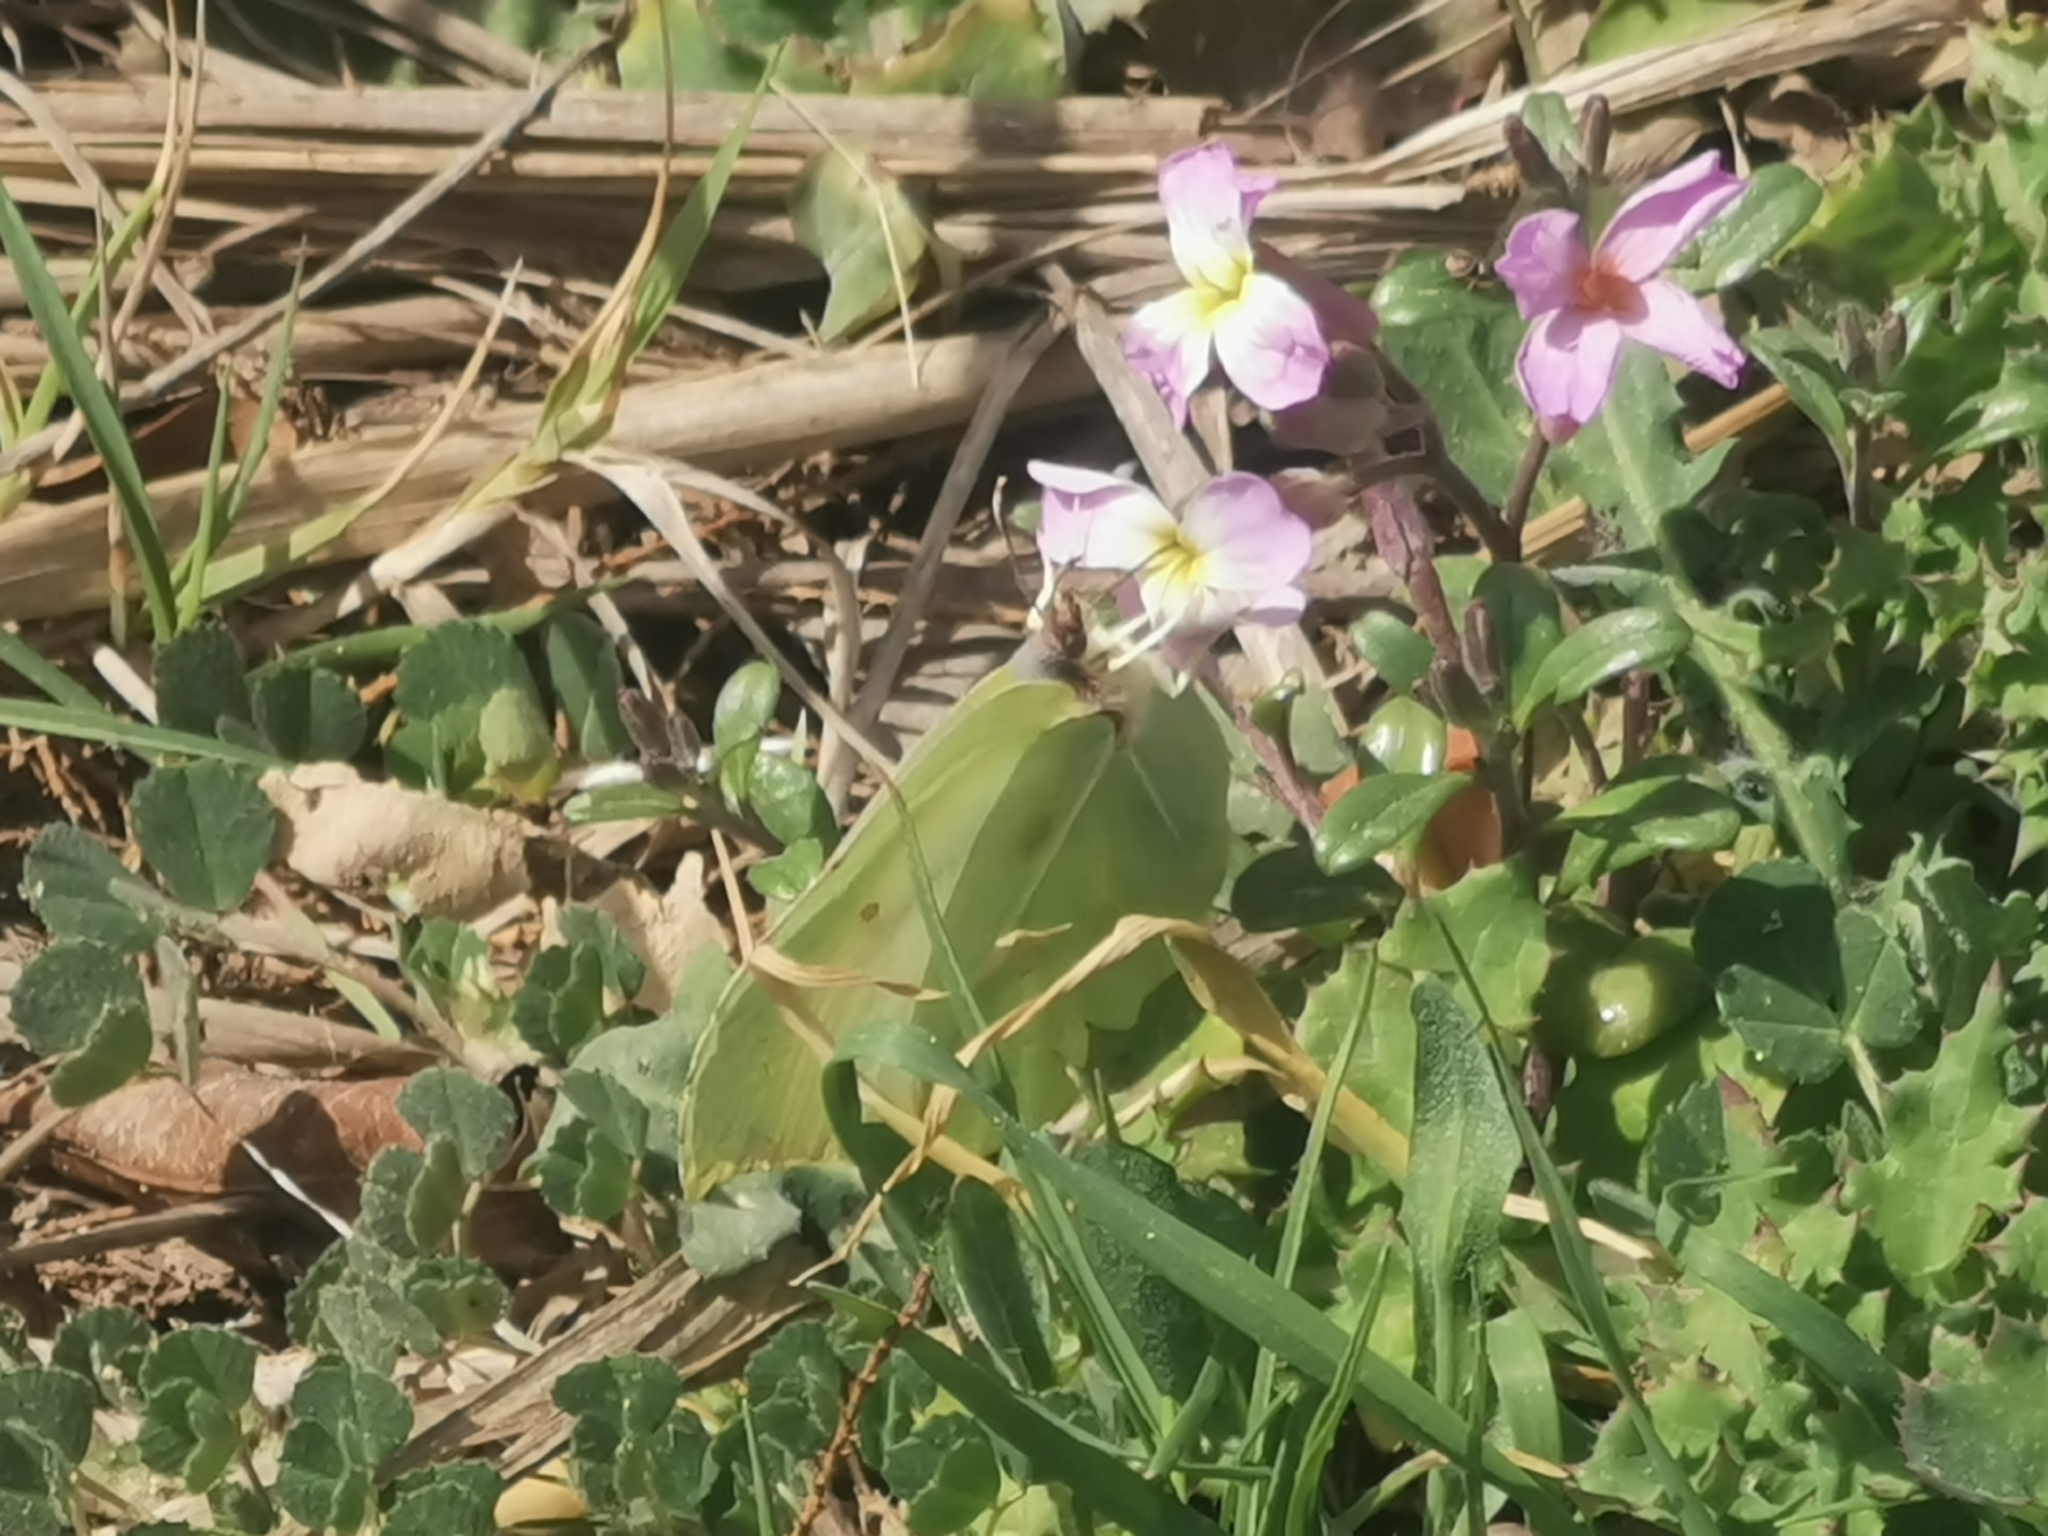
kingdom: Animalia
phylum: Arthropoda
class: Insecta
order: Lepidoptera
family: Pieridae
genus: Gonepteryx
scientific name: Gonepteryx cleopatra
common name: Cleopatra
